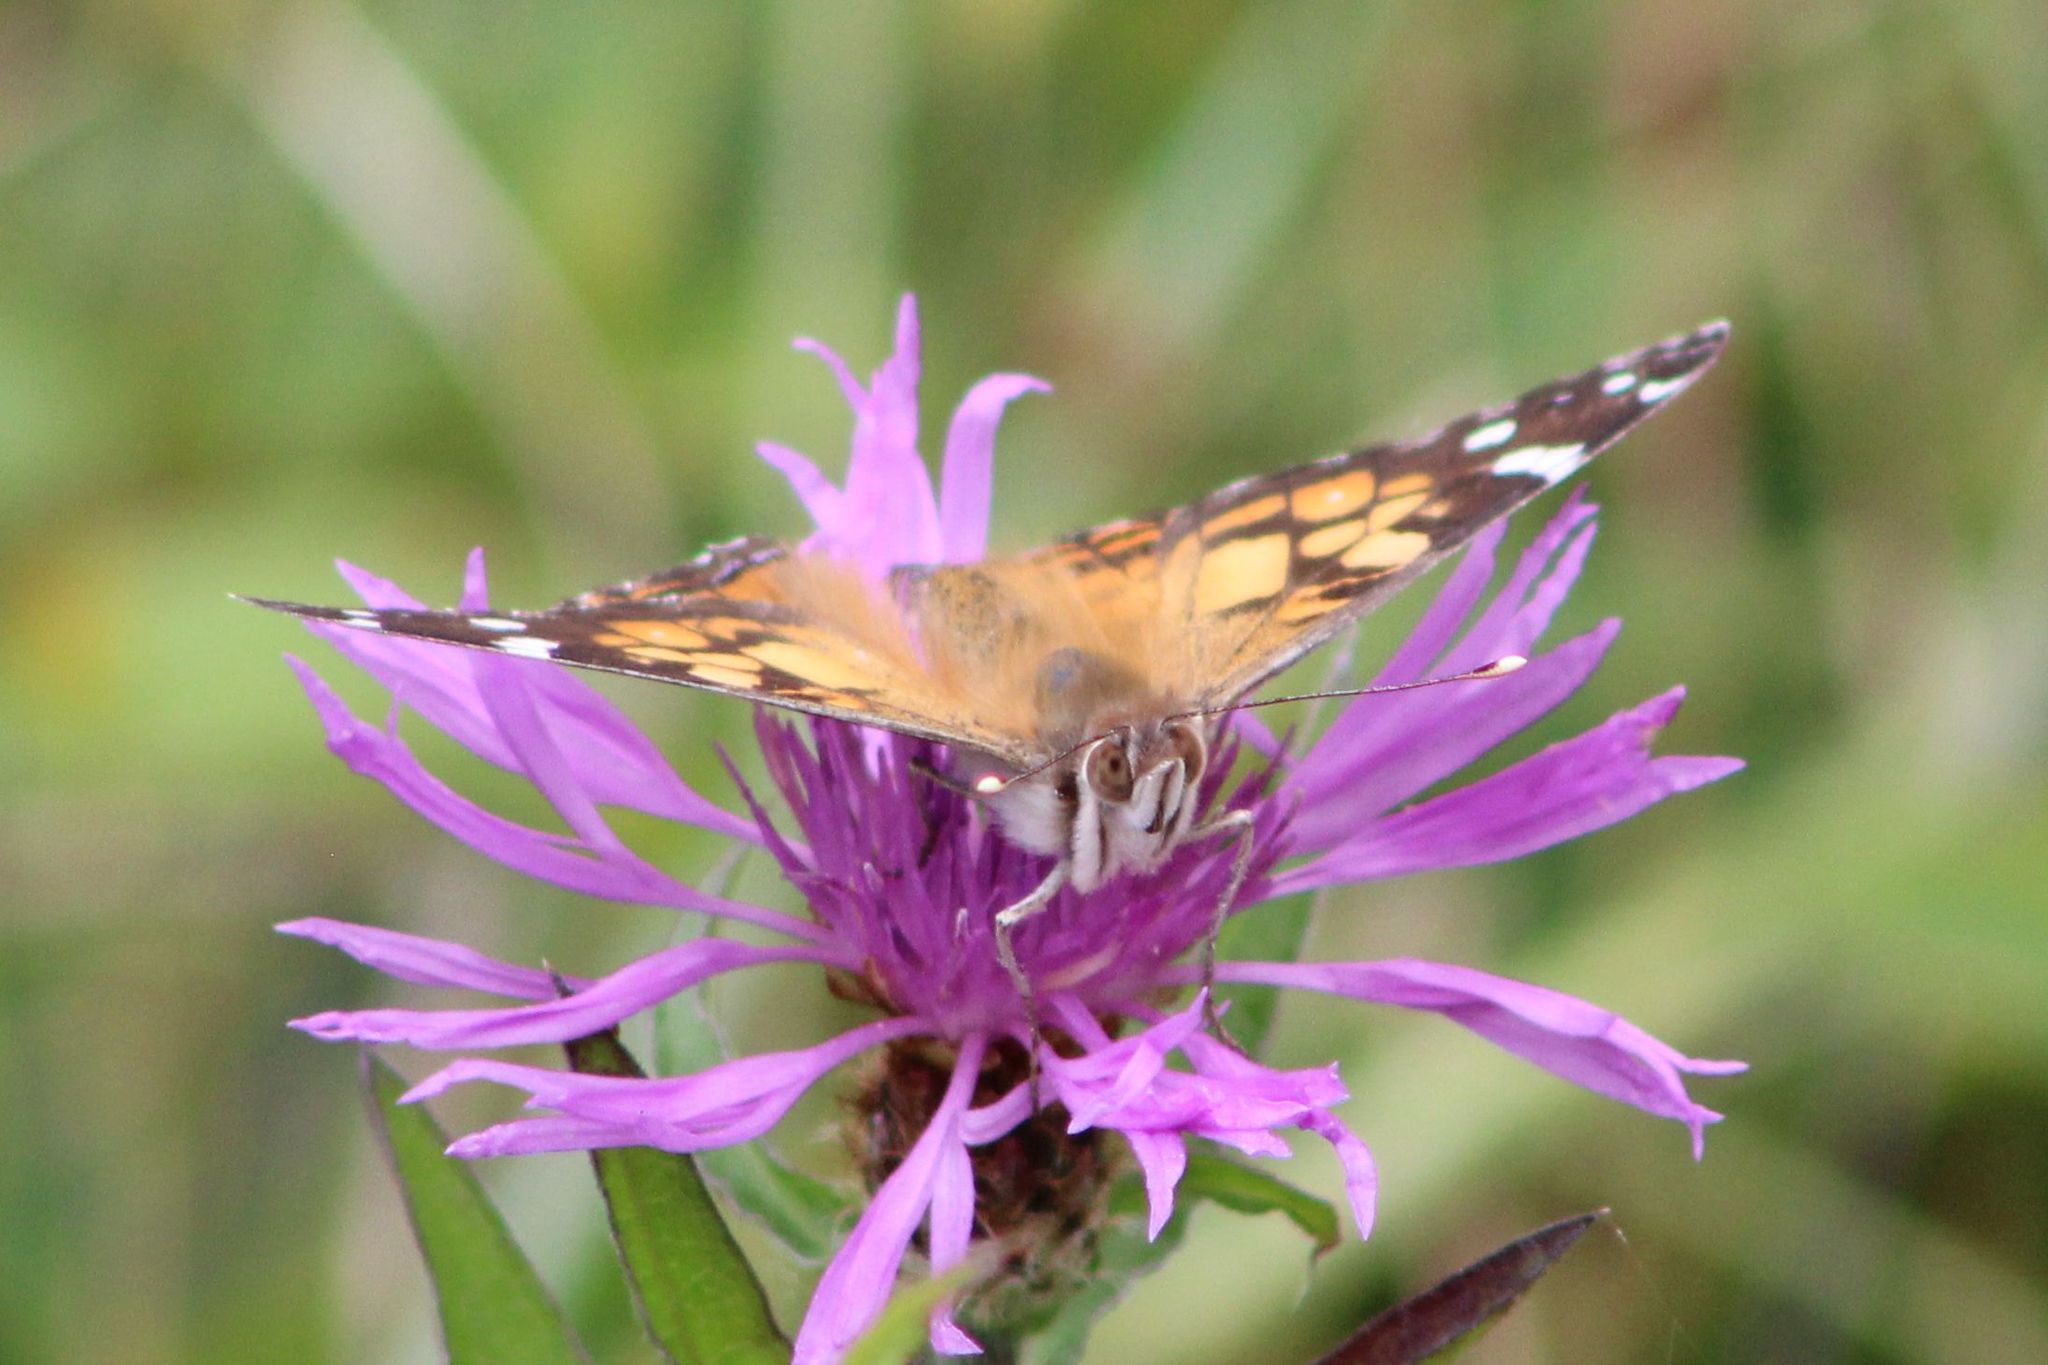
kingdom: Animalia
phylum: Arthropoda
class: Insecta
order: Lepidoptera
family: Nymphalidae
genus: Vanessa
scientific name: Vanessa virginiensis
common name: American lady
